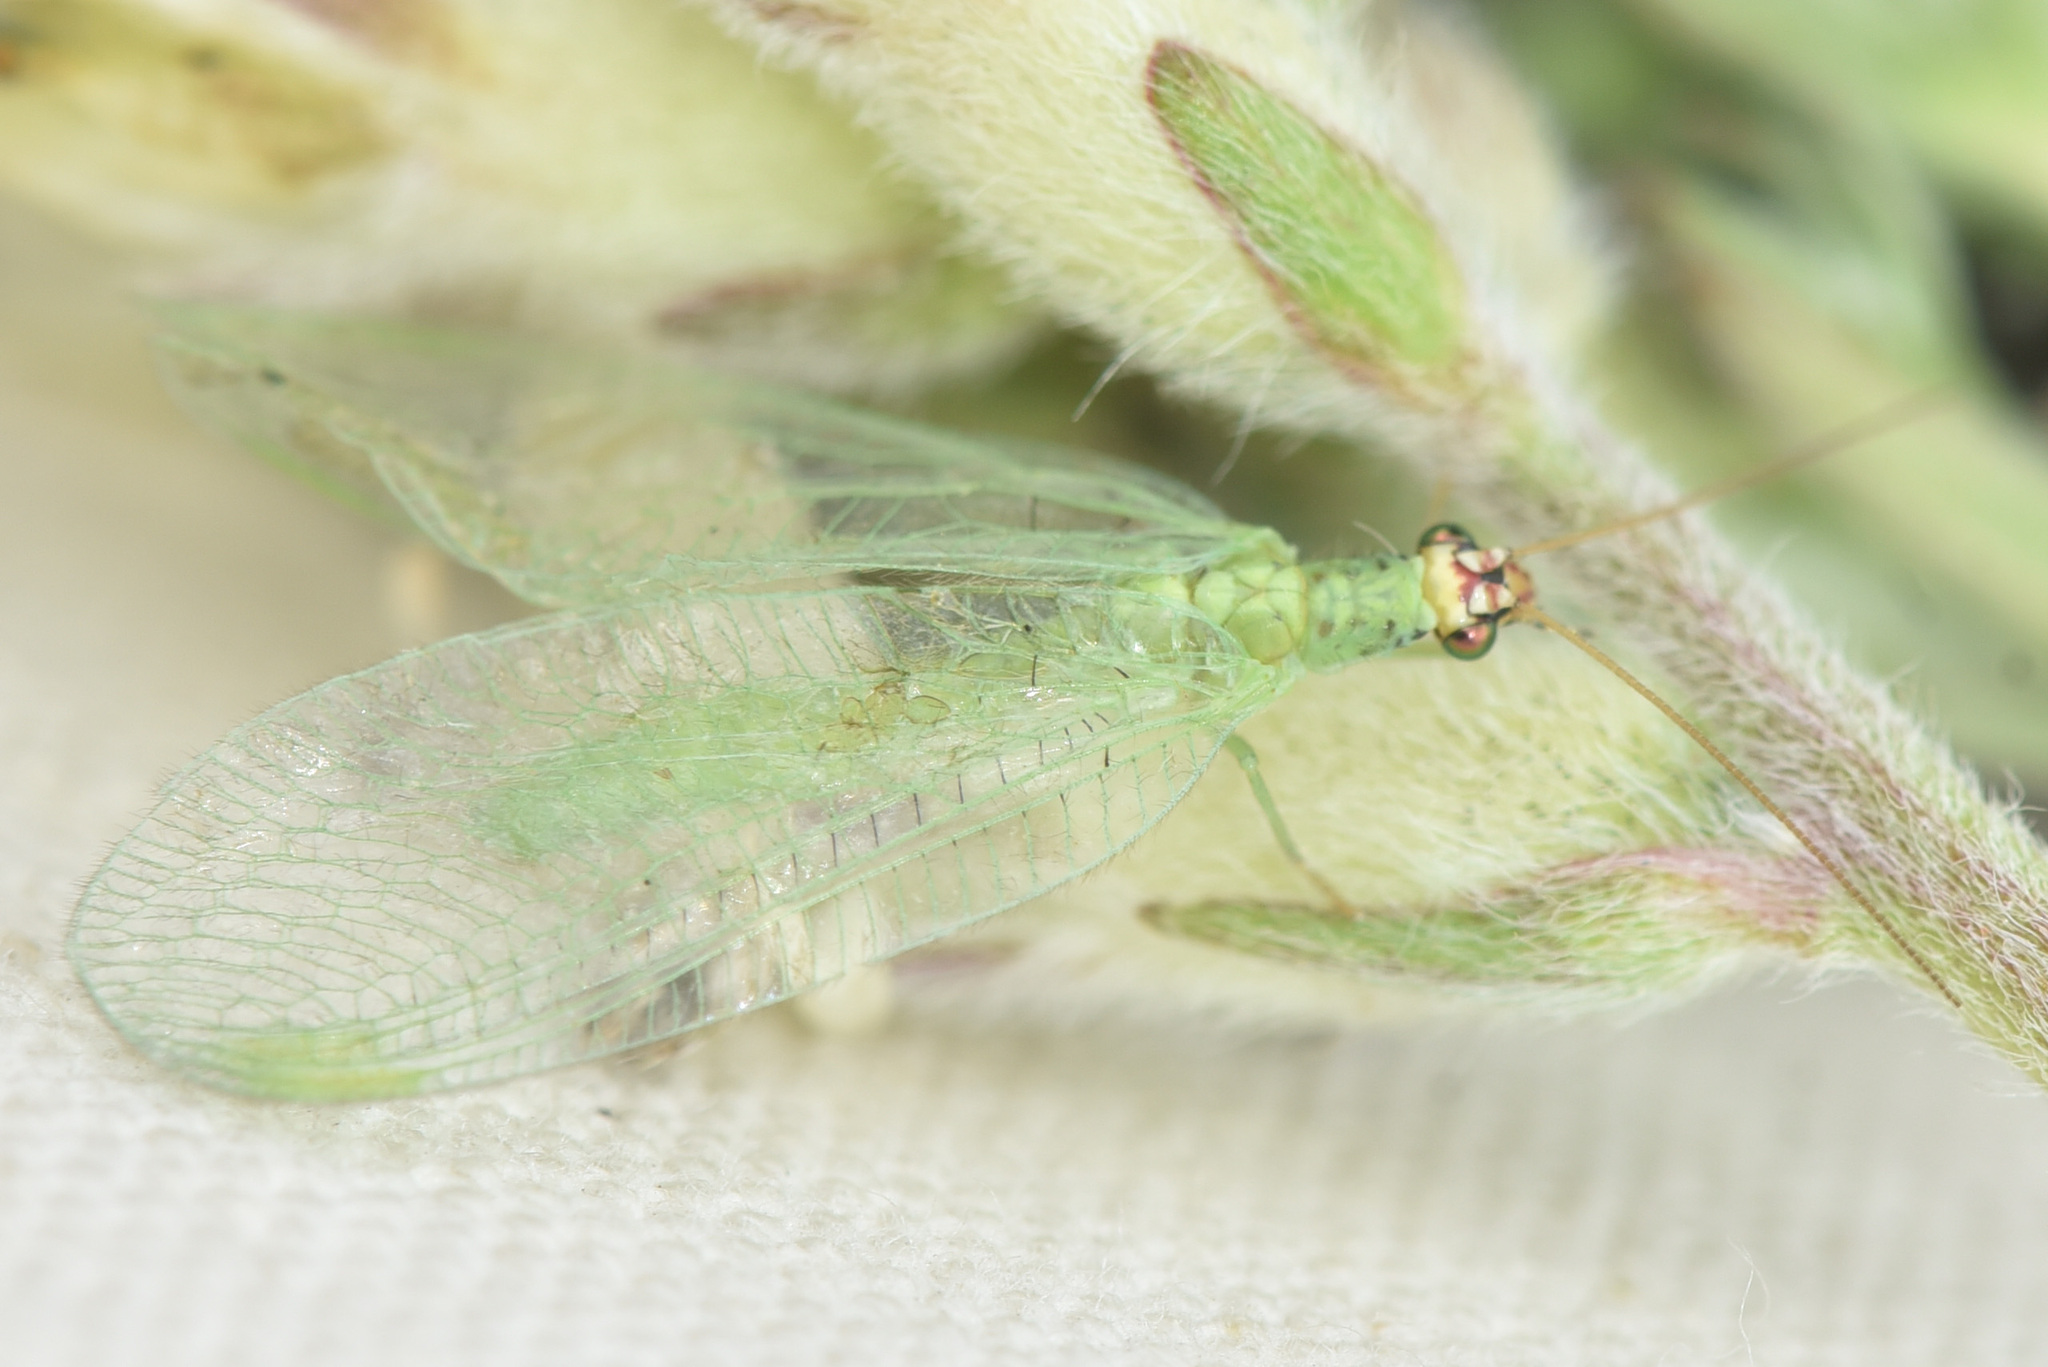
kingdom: Animalia
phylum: Arthropoda
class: Insecta
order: Neuroptera
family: Chrysopidae
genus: Chrysopa
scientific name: Chrysopa oculata
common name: Golden-eyed lacewing
